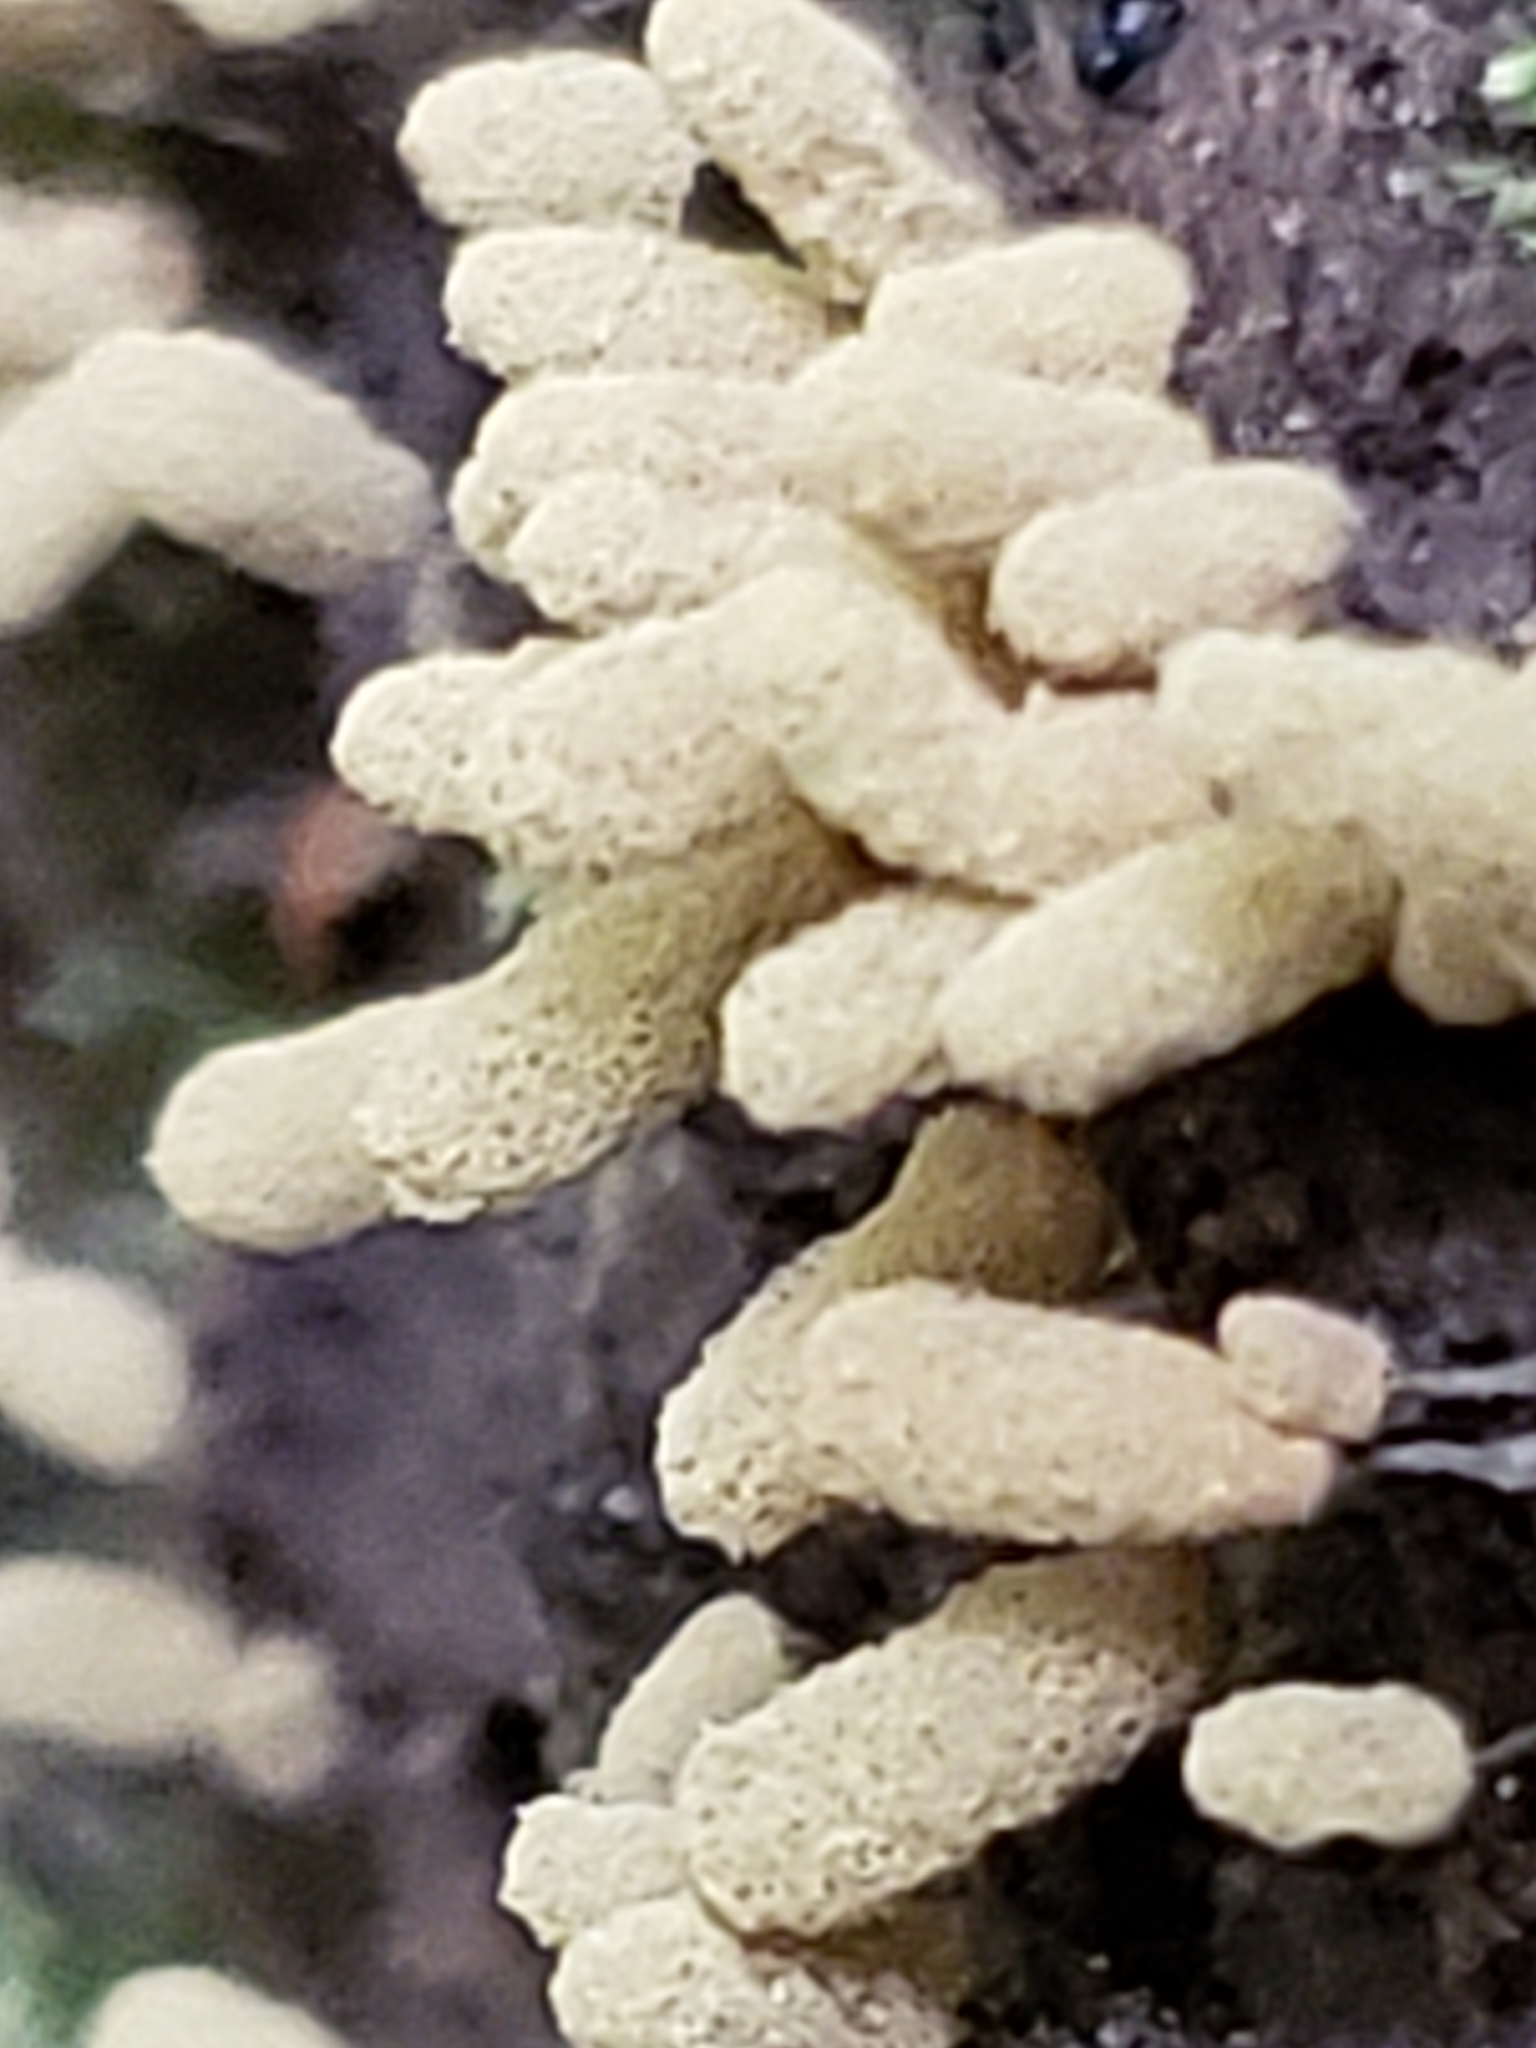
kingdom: Protozoa
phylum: Mycetozoa
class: Myxomycetes
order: Trichiales
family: Arcyriaceae
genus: Arcyria
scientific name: Arcyria cinerea
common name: White carnival candy slime mold
